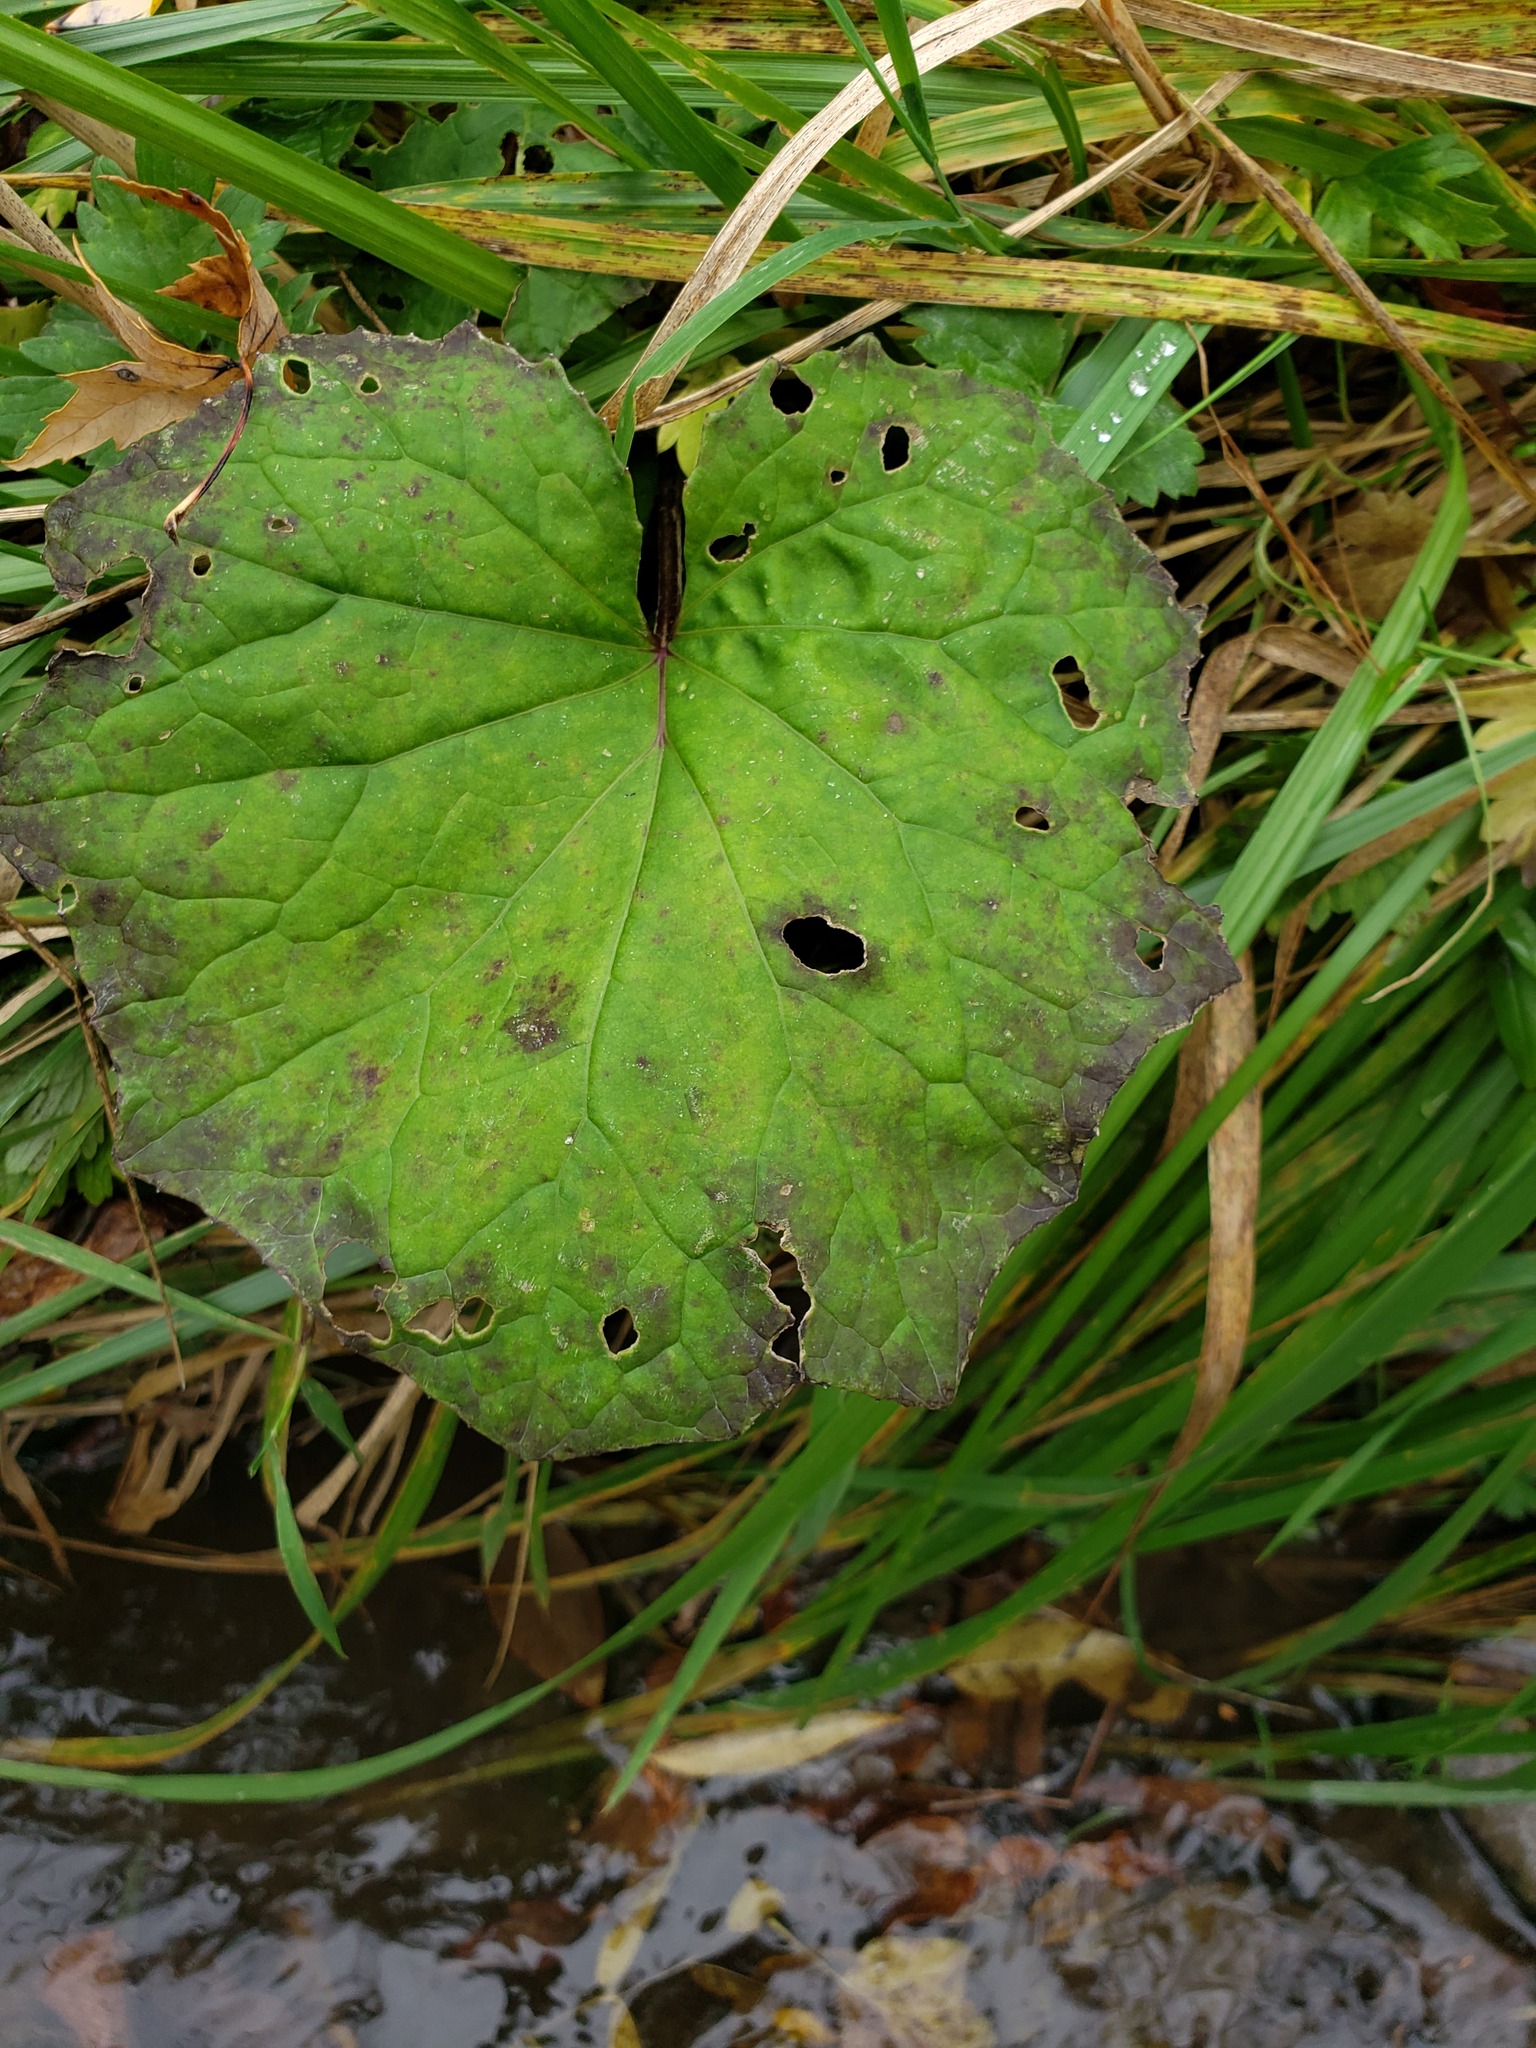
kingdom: Plantae
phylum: Tracheophyta
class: Magnoliopsida
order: Asterales
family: Asteraceae
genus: Tussilago
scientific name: Tussilago farfara
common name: Coltsfoot
